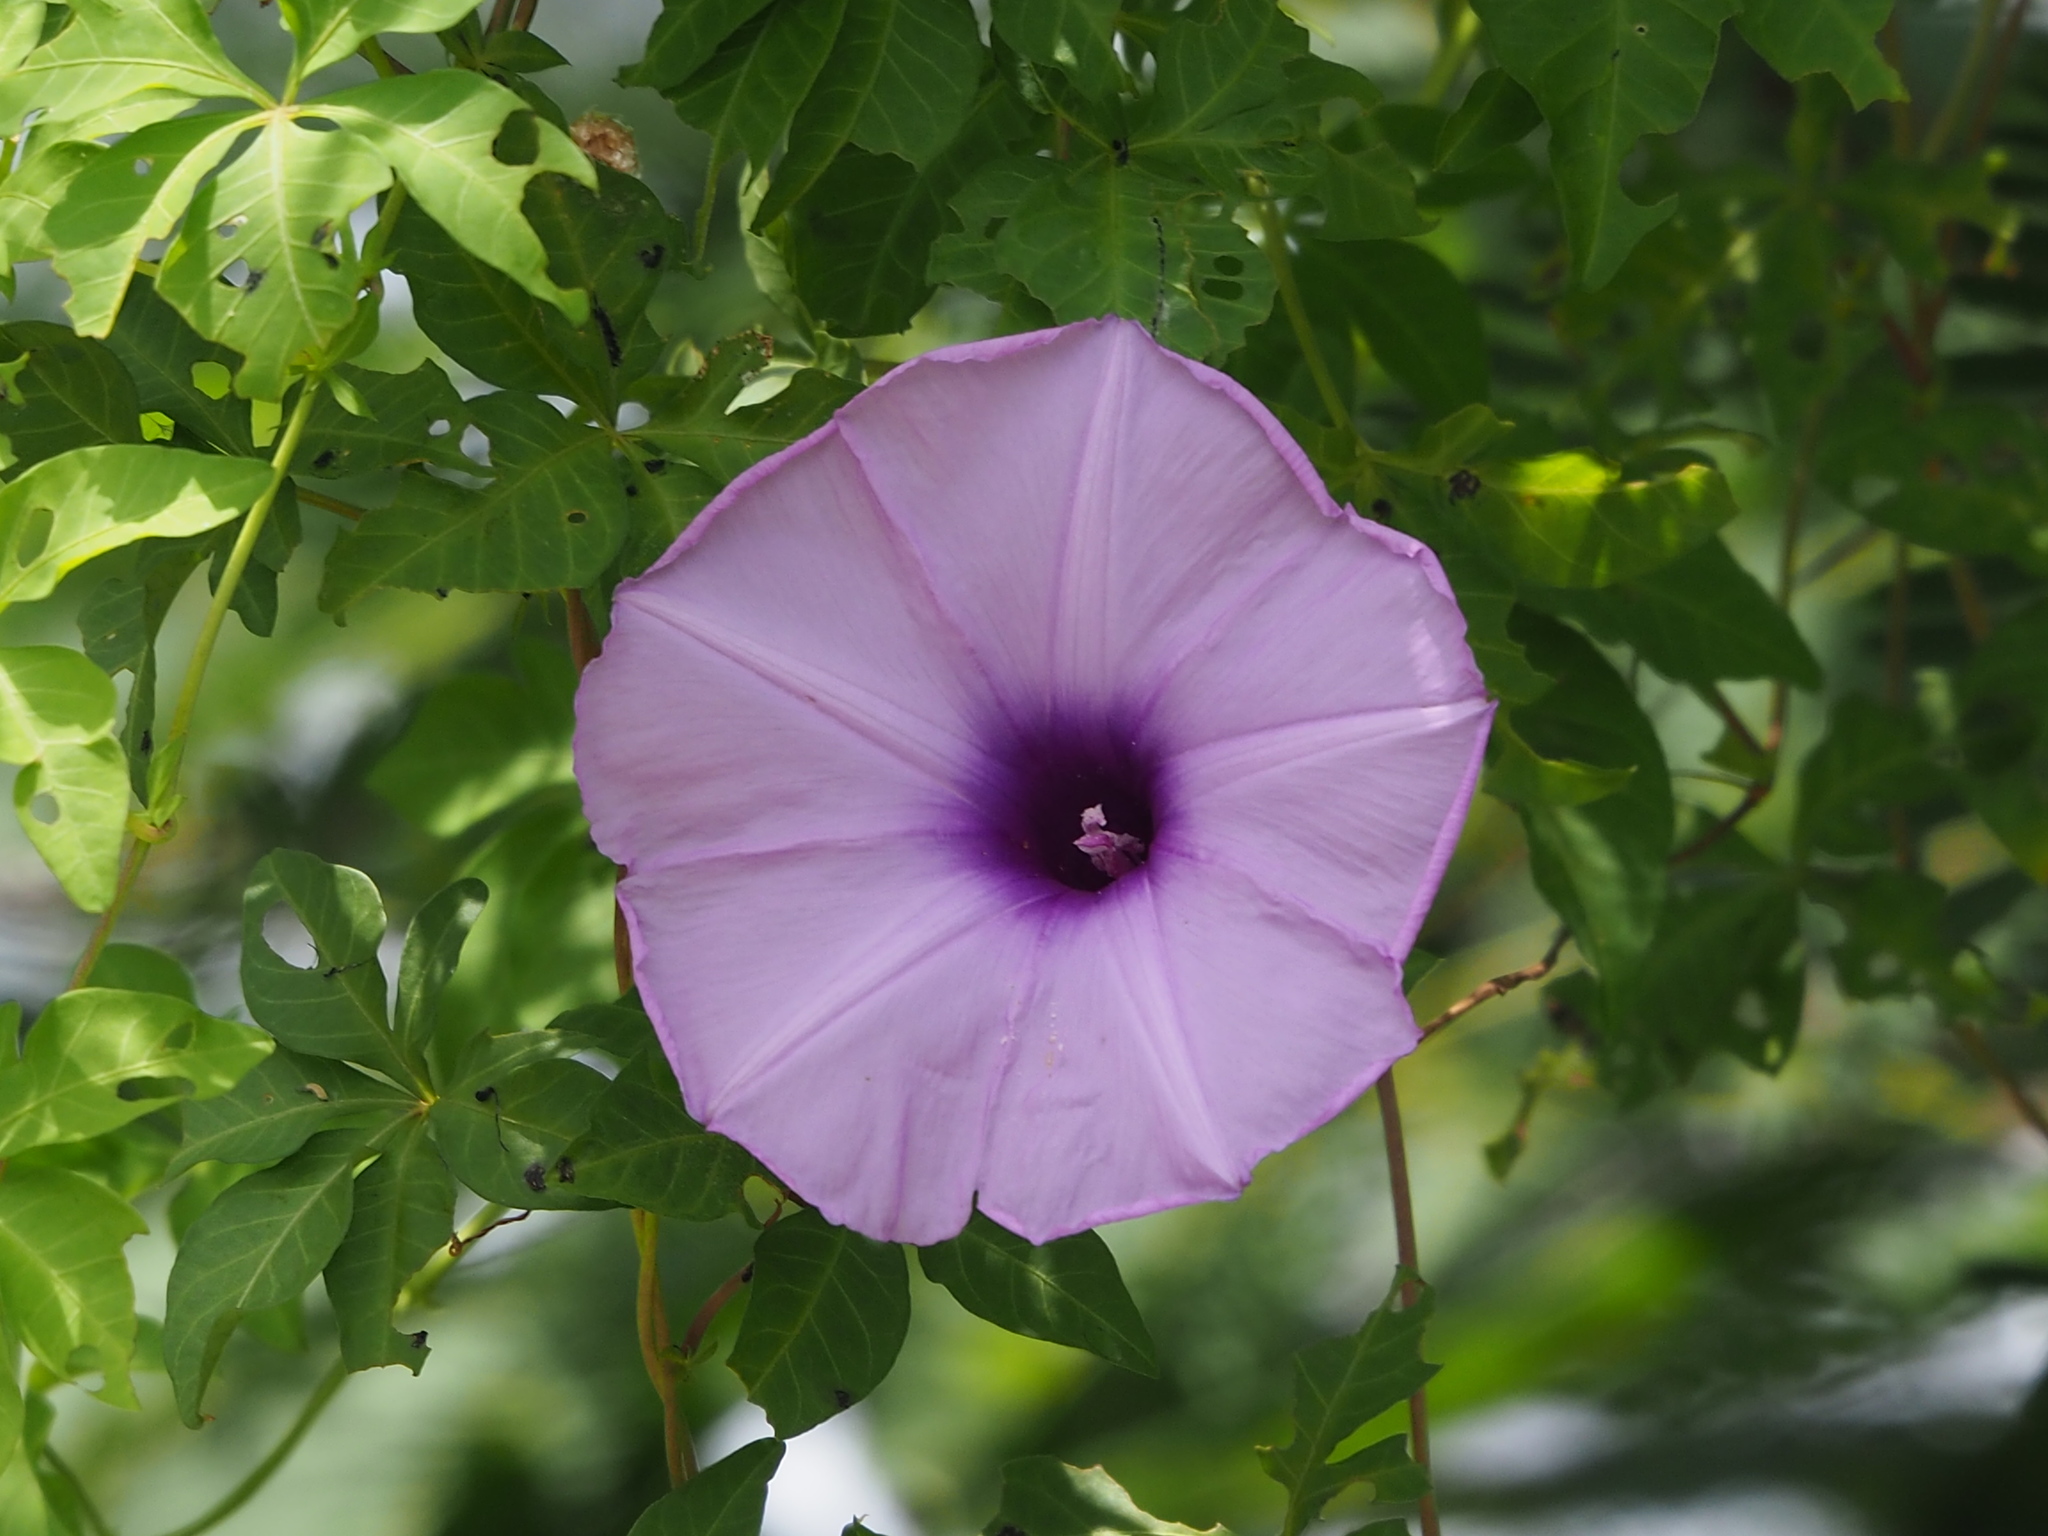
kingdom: Plantae
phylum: Tracheophyta
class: Magnoliopsida
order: Solanales
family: Convolvulaceae
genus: Ipomoea
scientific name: Ipomoea cairica
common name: Mile a minute vine
